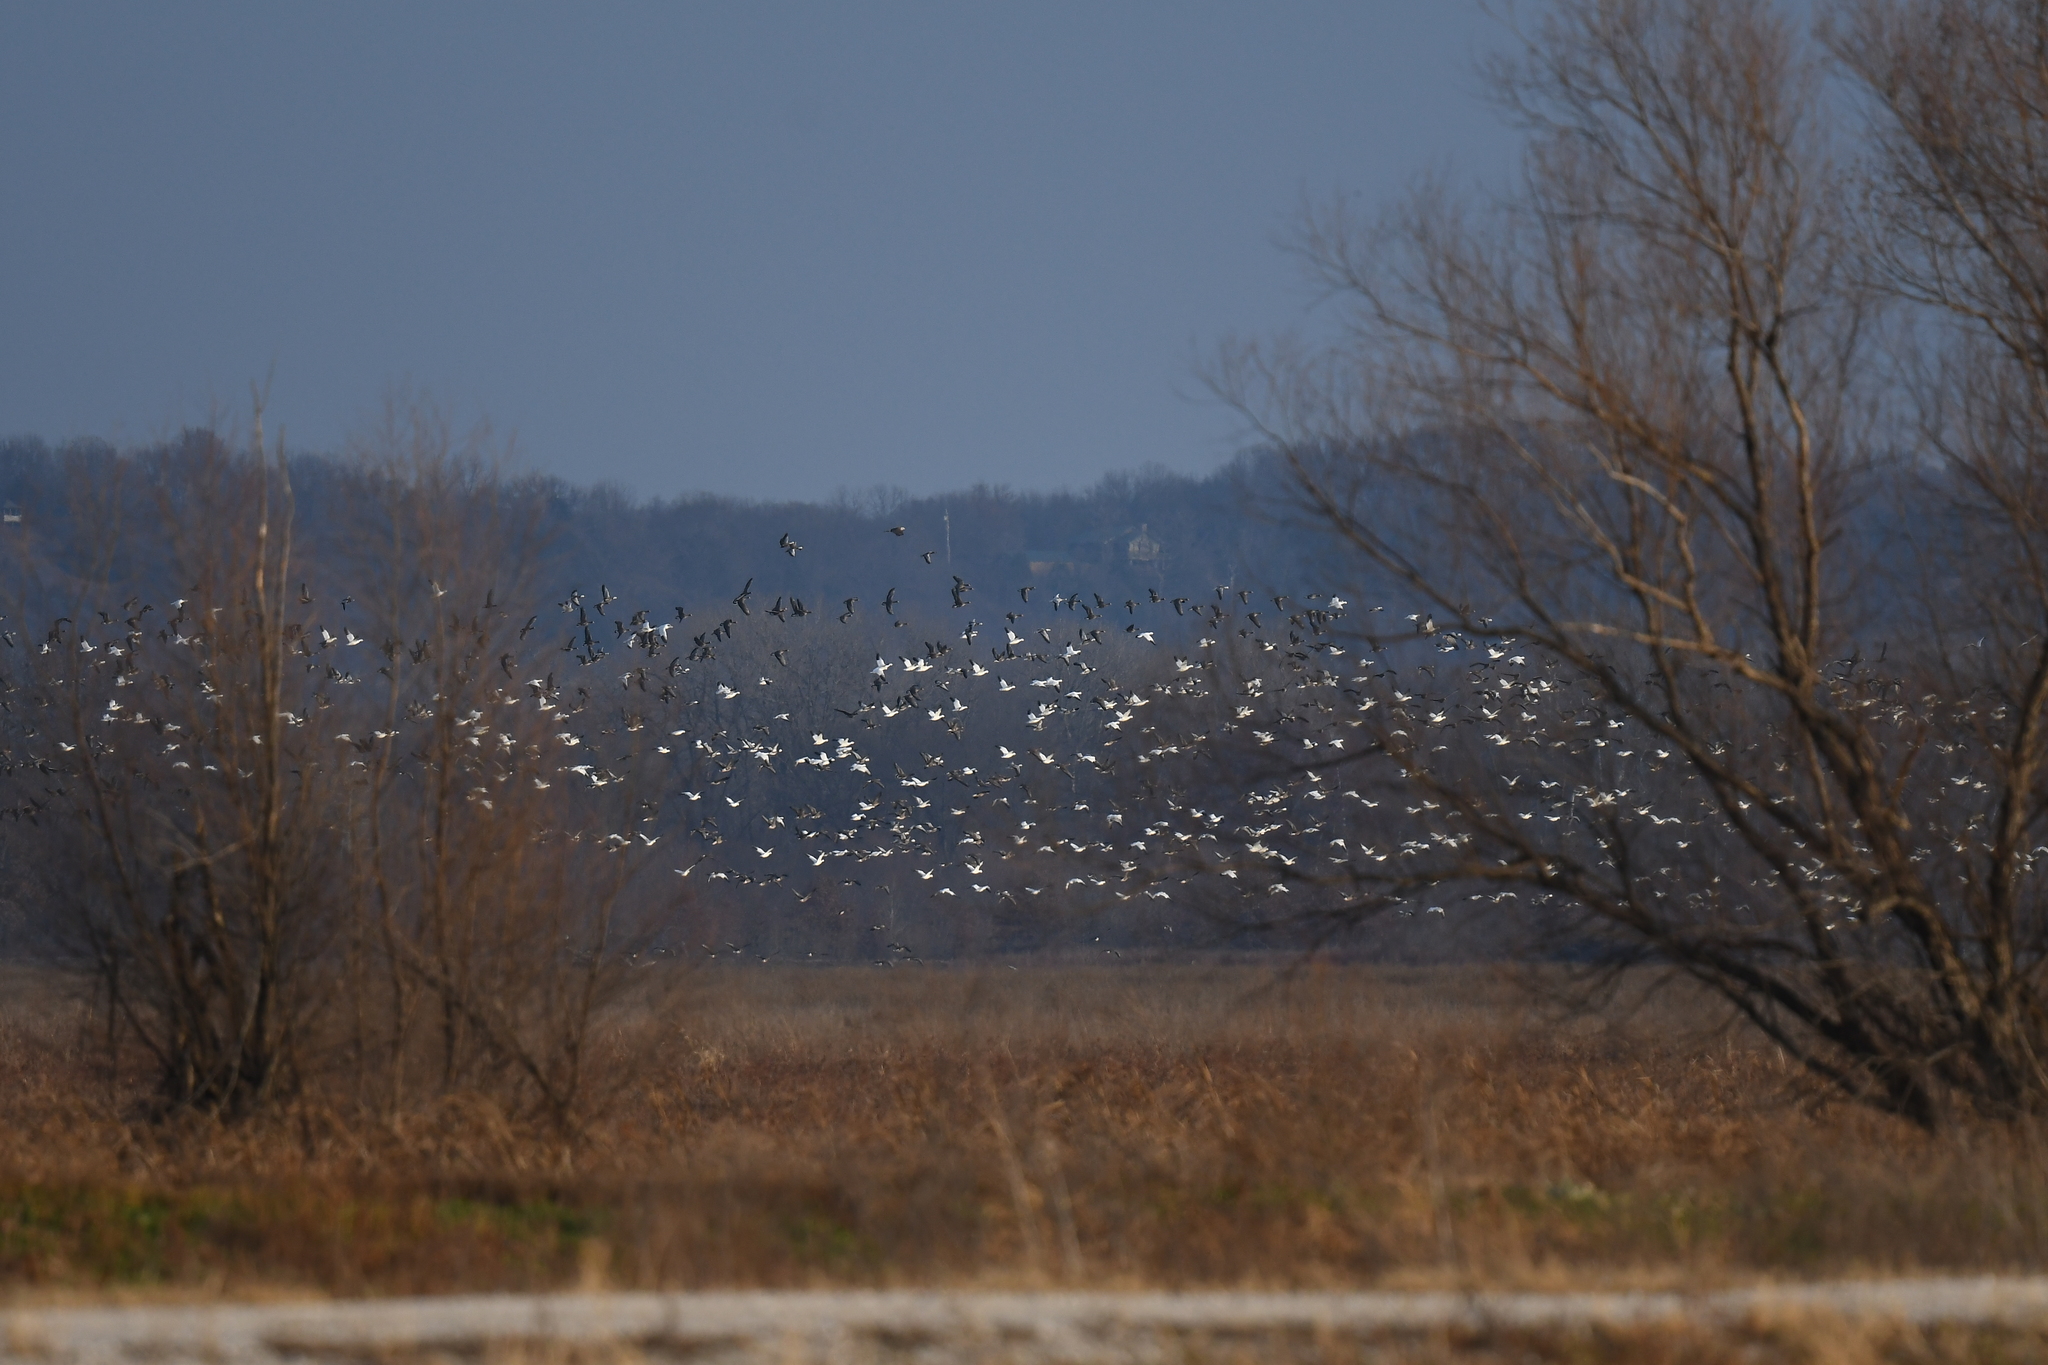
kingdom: Animalia
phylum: Chordata
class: Aves
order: Anseriformes
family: Anatidae
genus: Anser
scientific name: Anser caerulescens
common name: Snow goose
